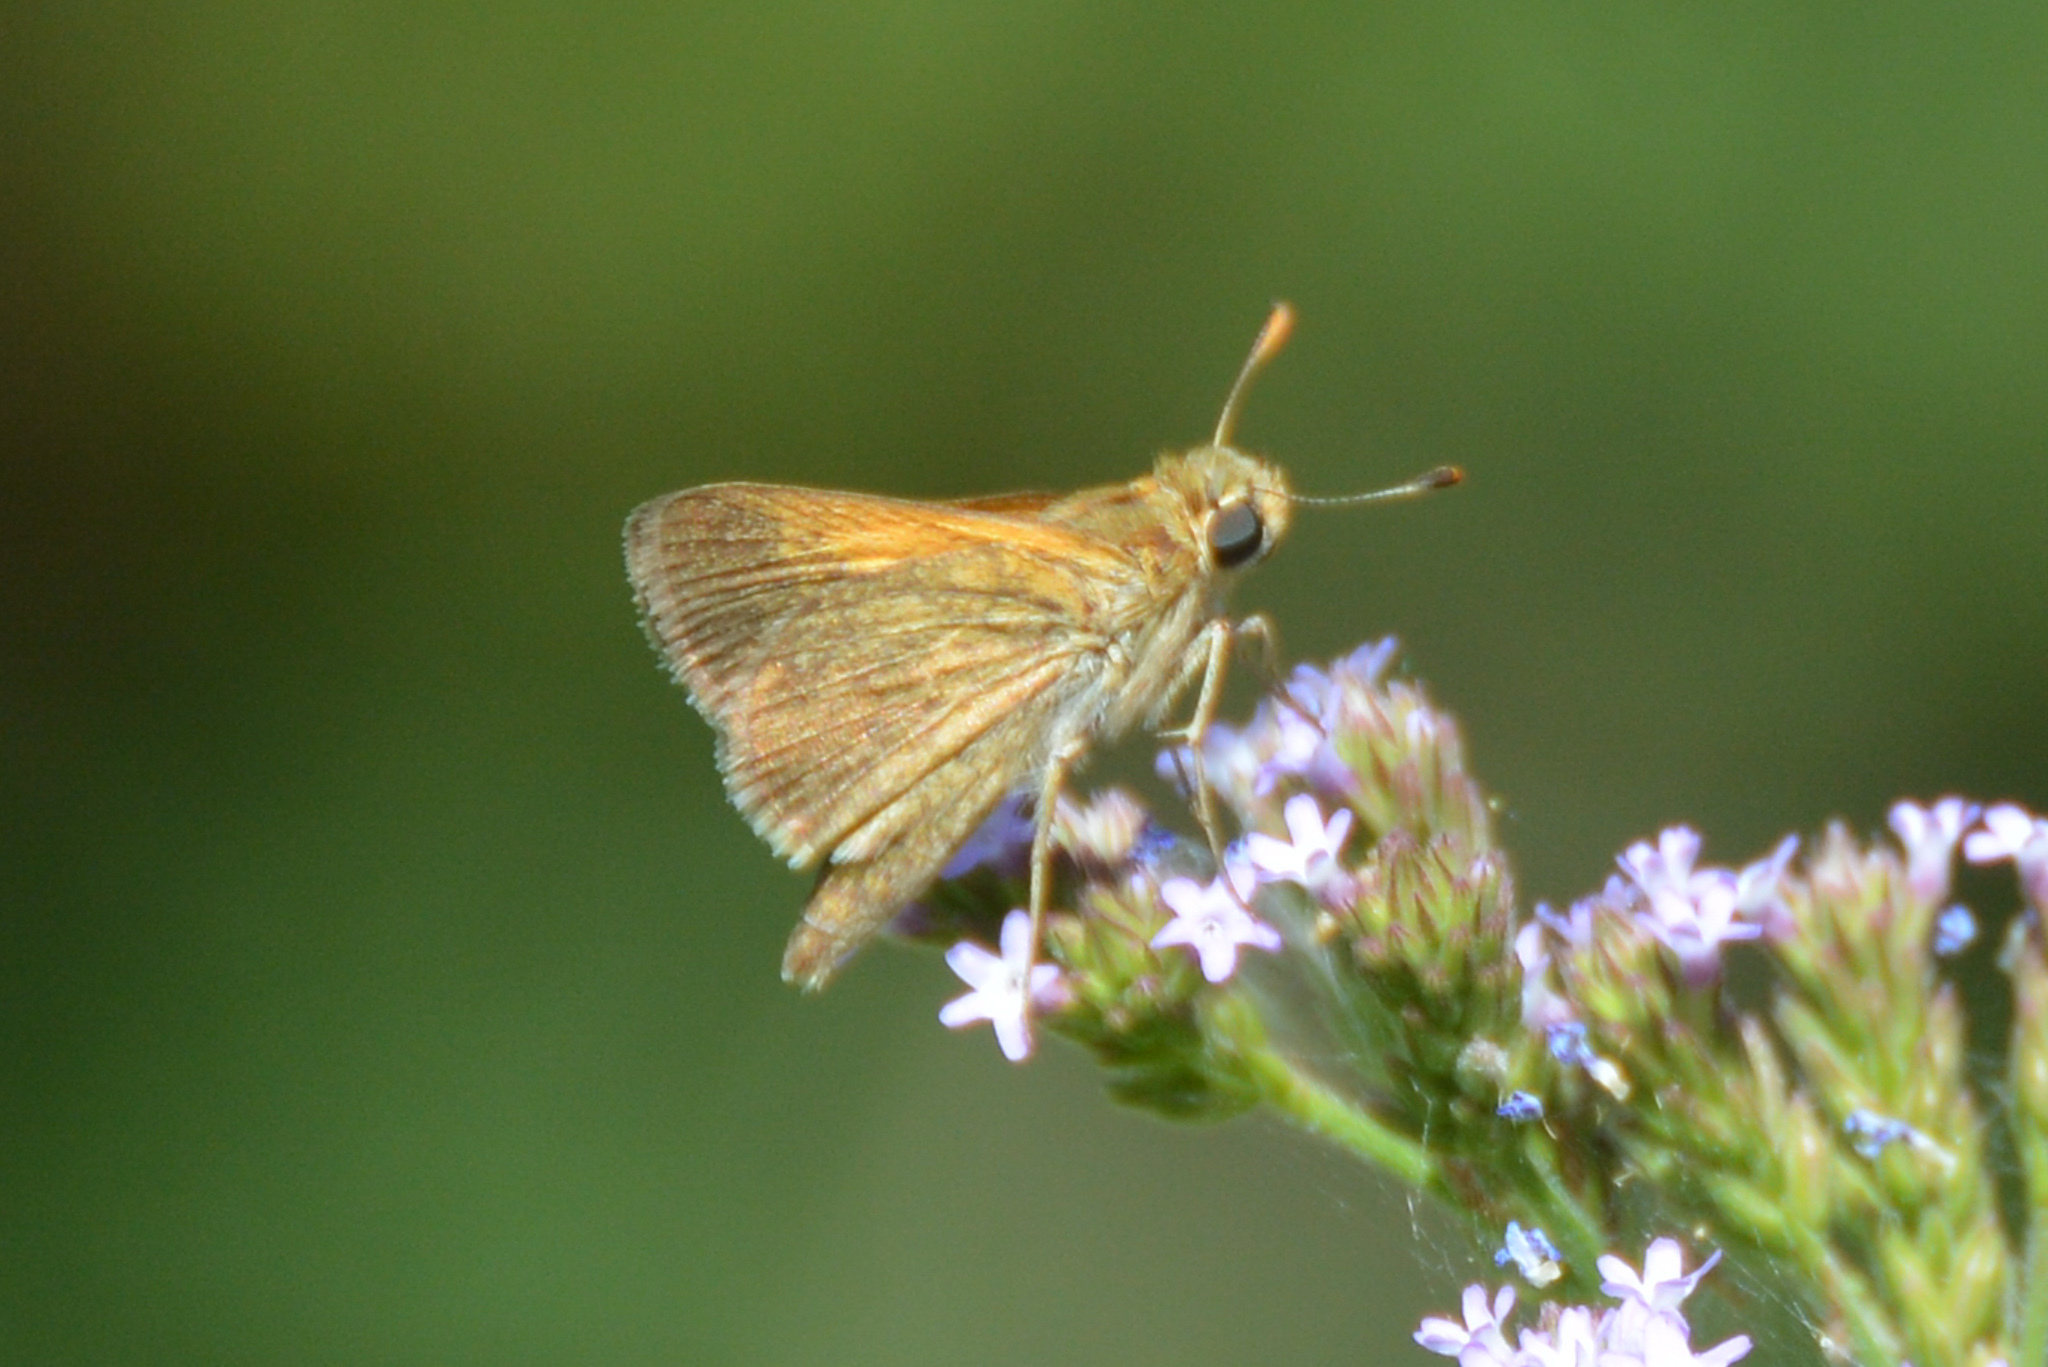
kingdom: Animalia
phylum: Arthropoda
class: Insecta
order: Lepidoptera
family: Hesperiidae
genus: Polites
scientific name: Polites themistocles
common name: Tawny-edged skipper
